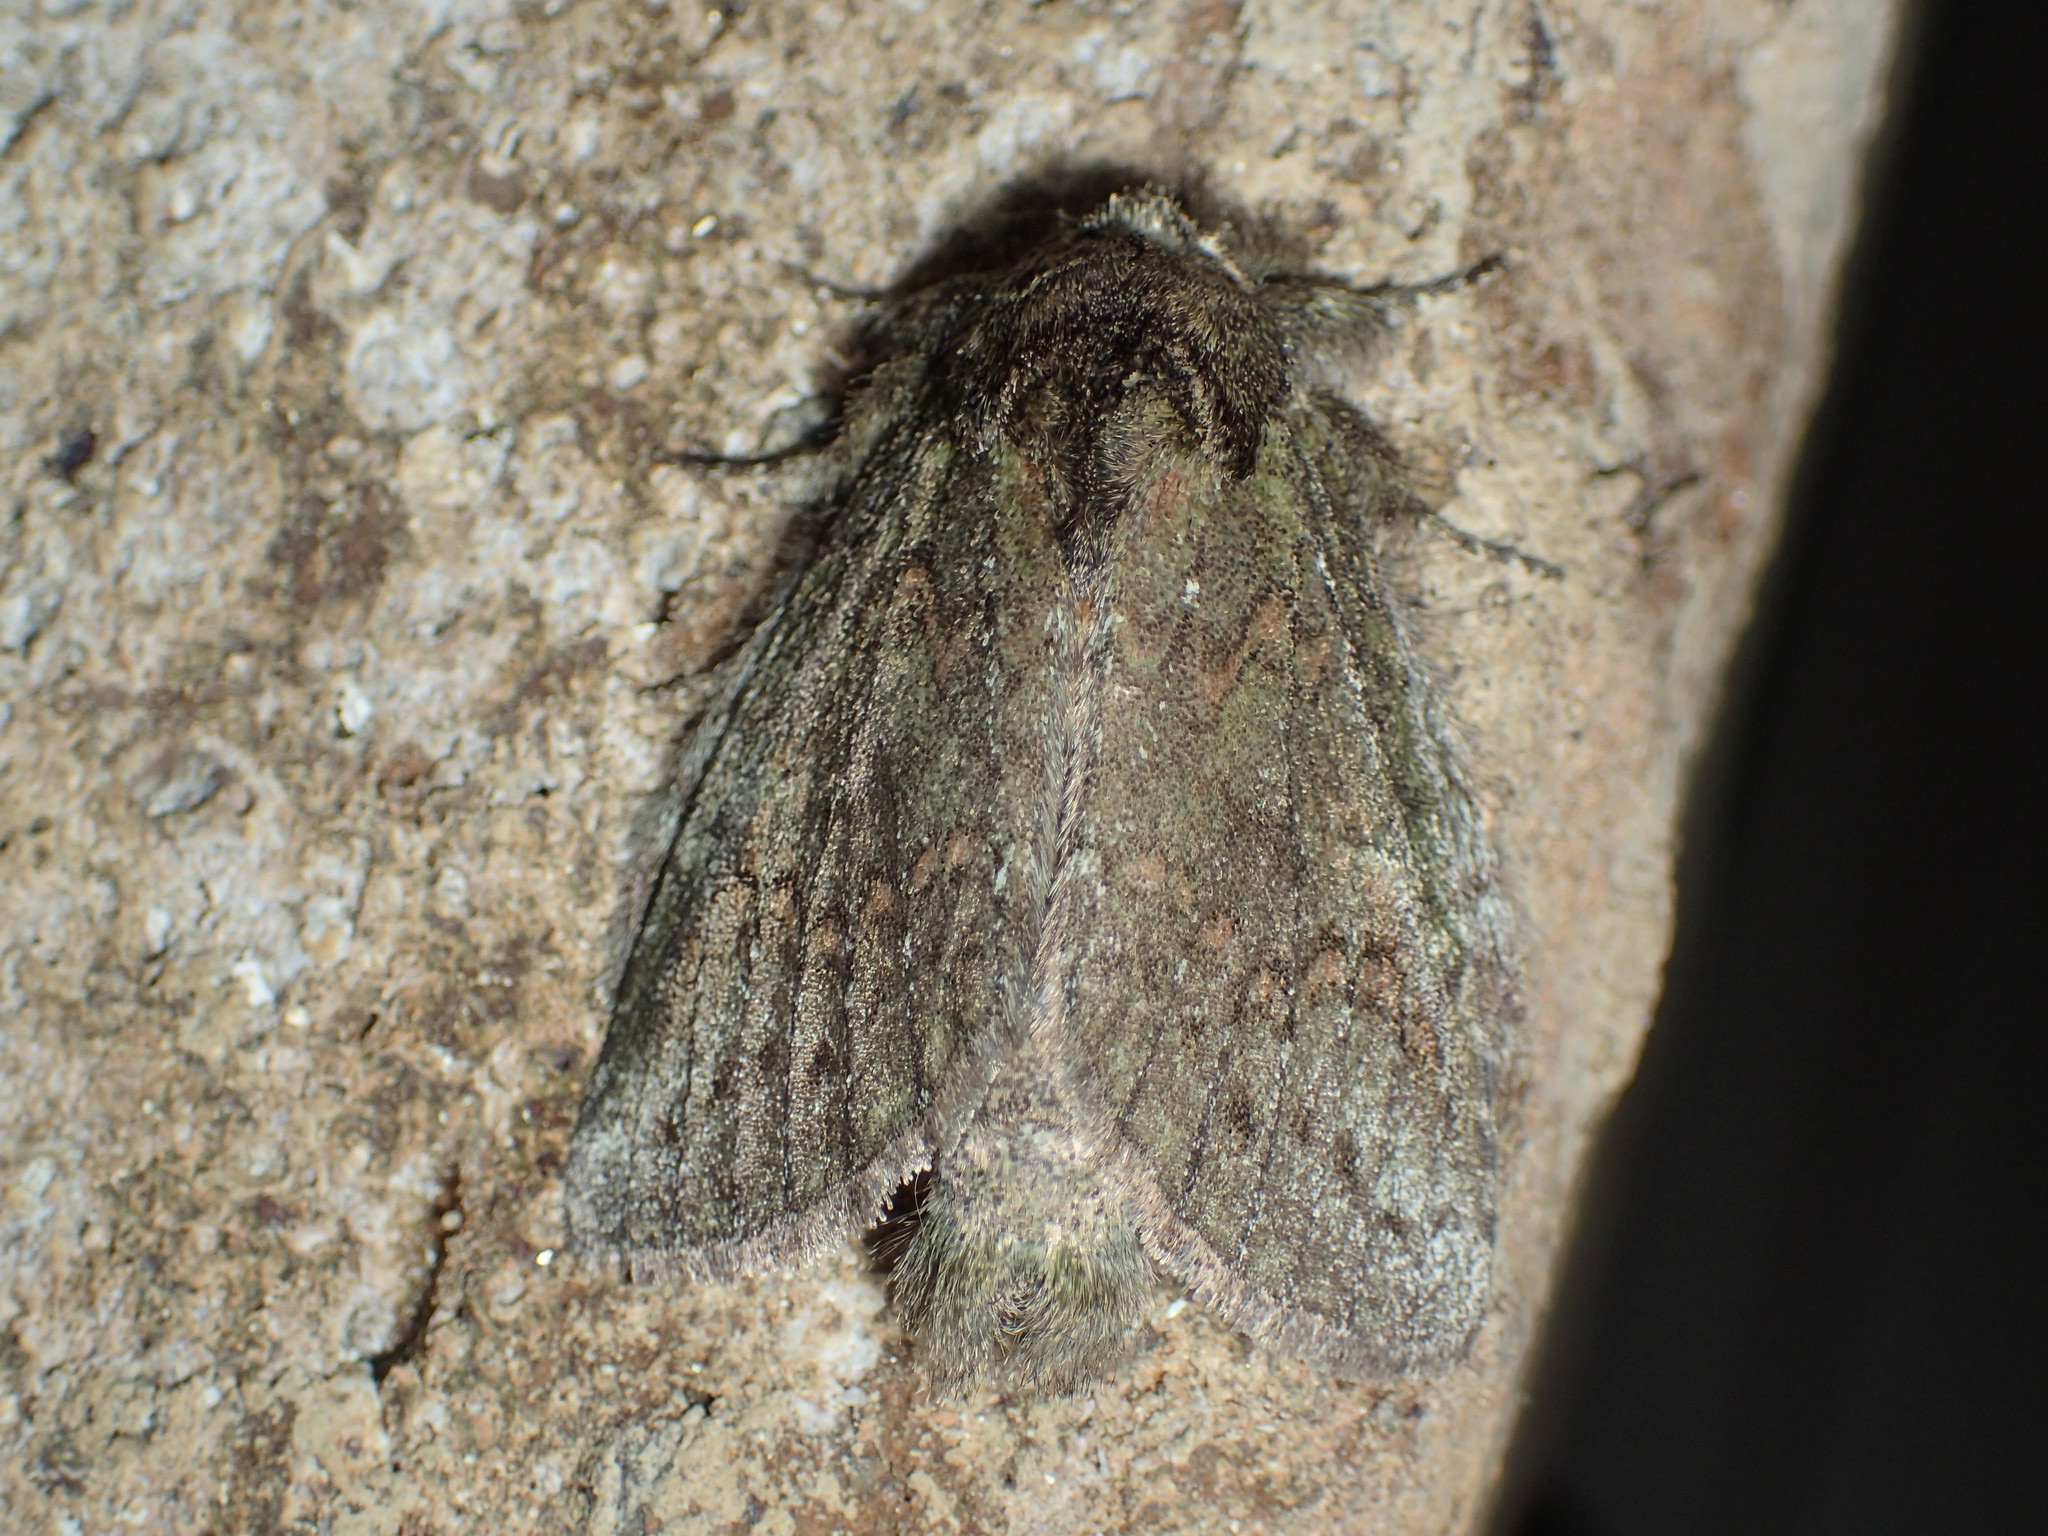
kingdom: Animalia
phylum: Arthropoda
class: Insecta
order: Lepidoptera
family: Notodontidae
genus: Disphragis
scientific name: Disphragis Cecrita biundata
